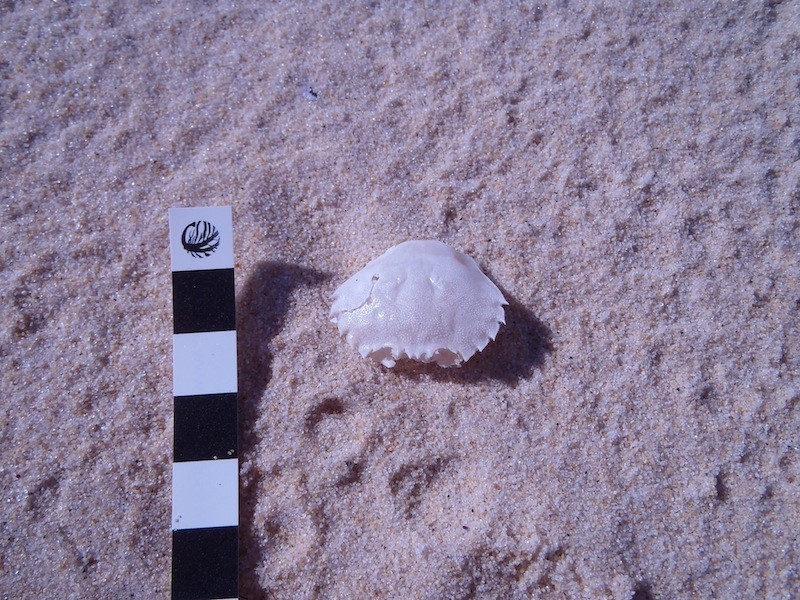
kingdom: Animalia
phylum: Arthropoda
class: Malacostraca
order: Decapoda
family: Ovalipidae
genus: Ovalipes
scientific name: Ovalipes australiensis
